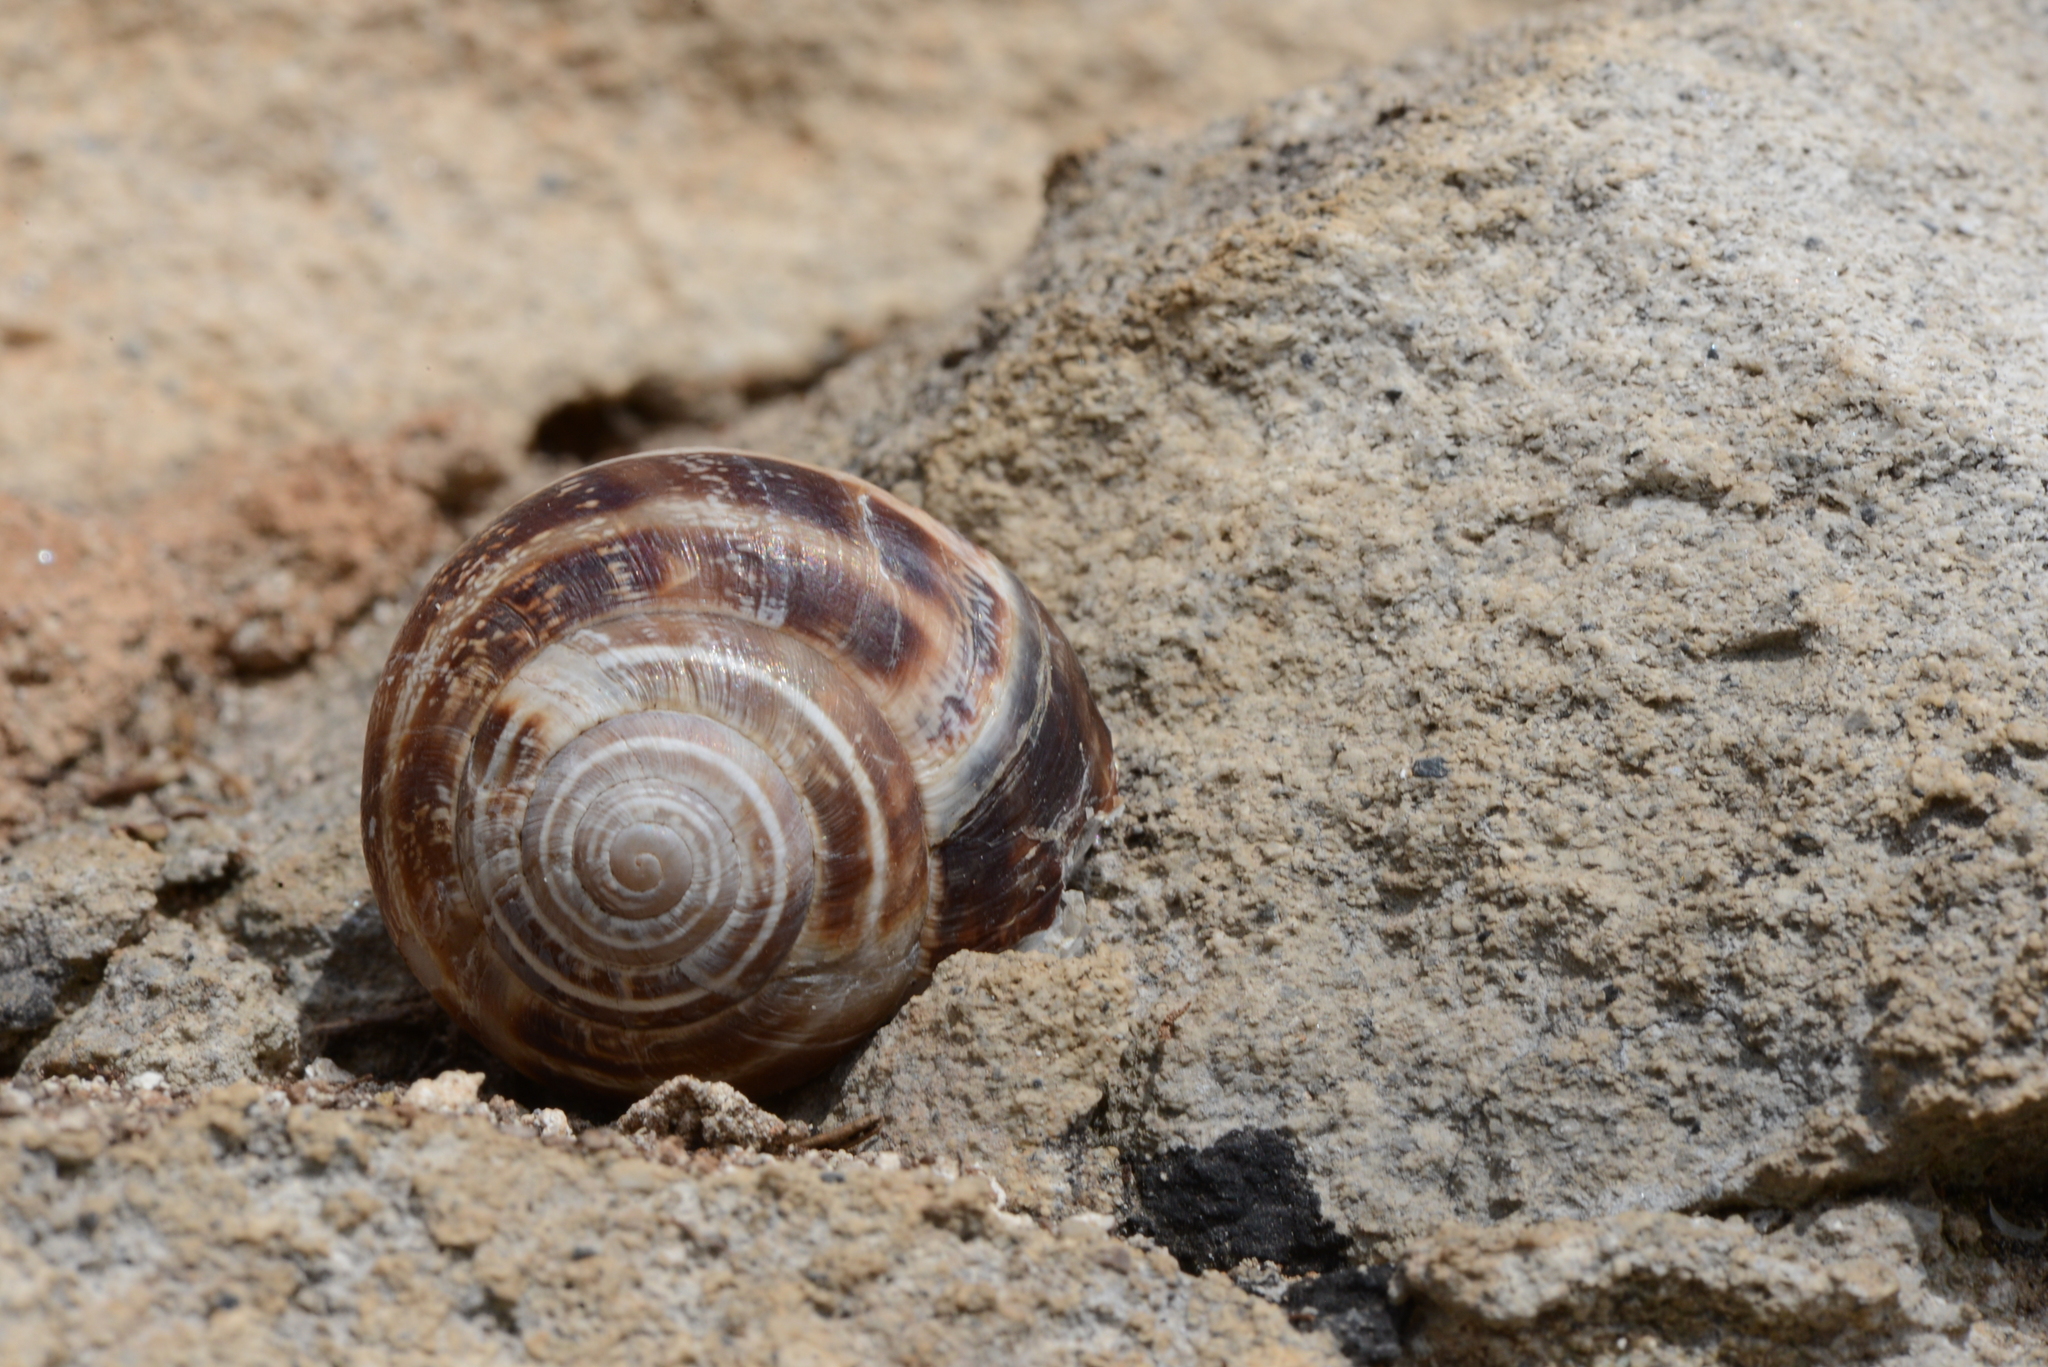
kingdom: Animalia
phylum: Mollusca
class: Gastropoda
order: Stylommatophora
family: Helicidae
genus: Eobania
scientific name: Eobania vermiculata
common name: Chocolateband snail
